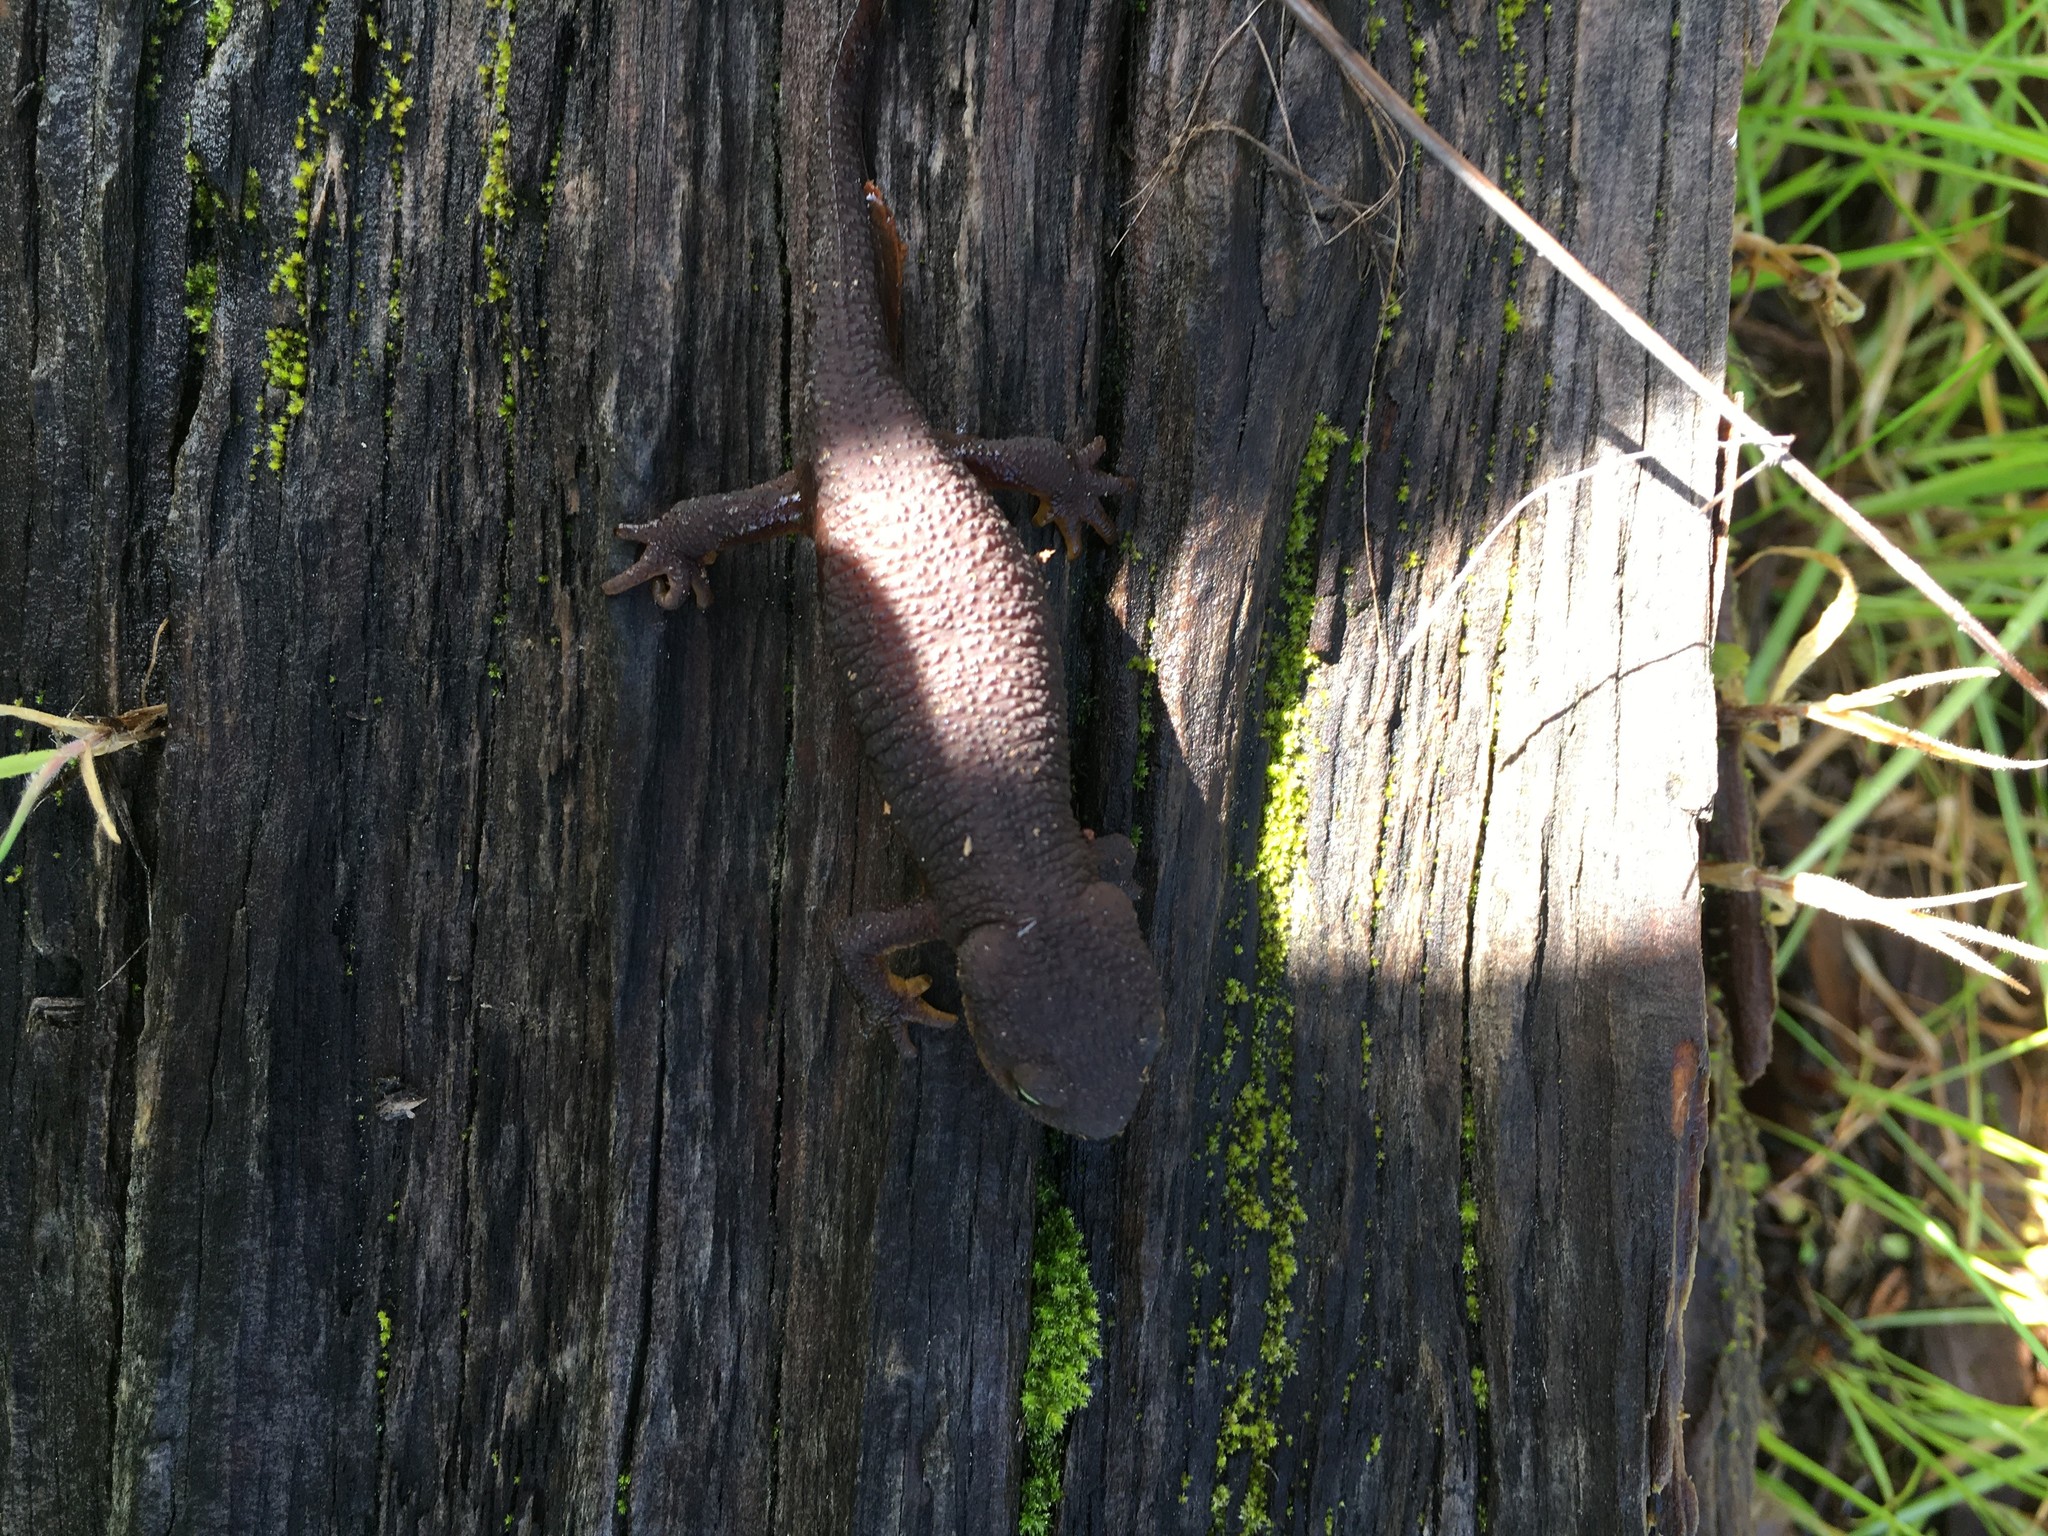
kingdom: Animalia
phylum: Chordata
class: Amphibia
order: Caudata
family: Salamandridae
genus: Taricha
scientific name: Taricha granulosa
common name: Roughskin newt
